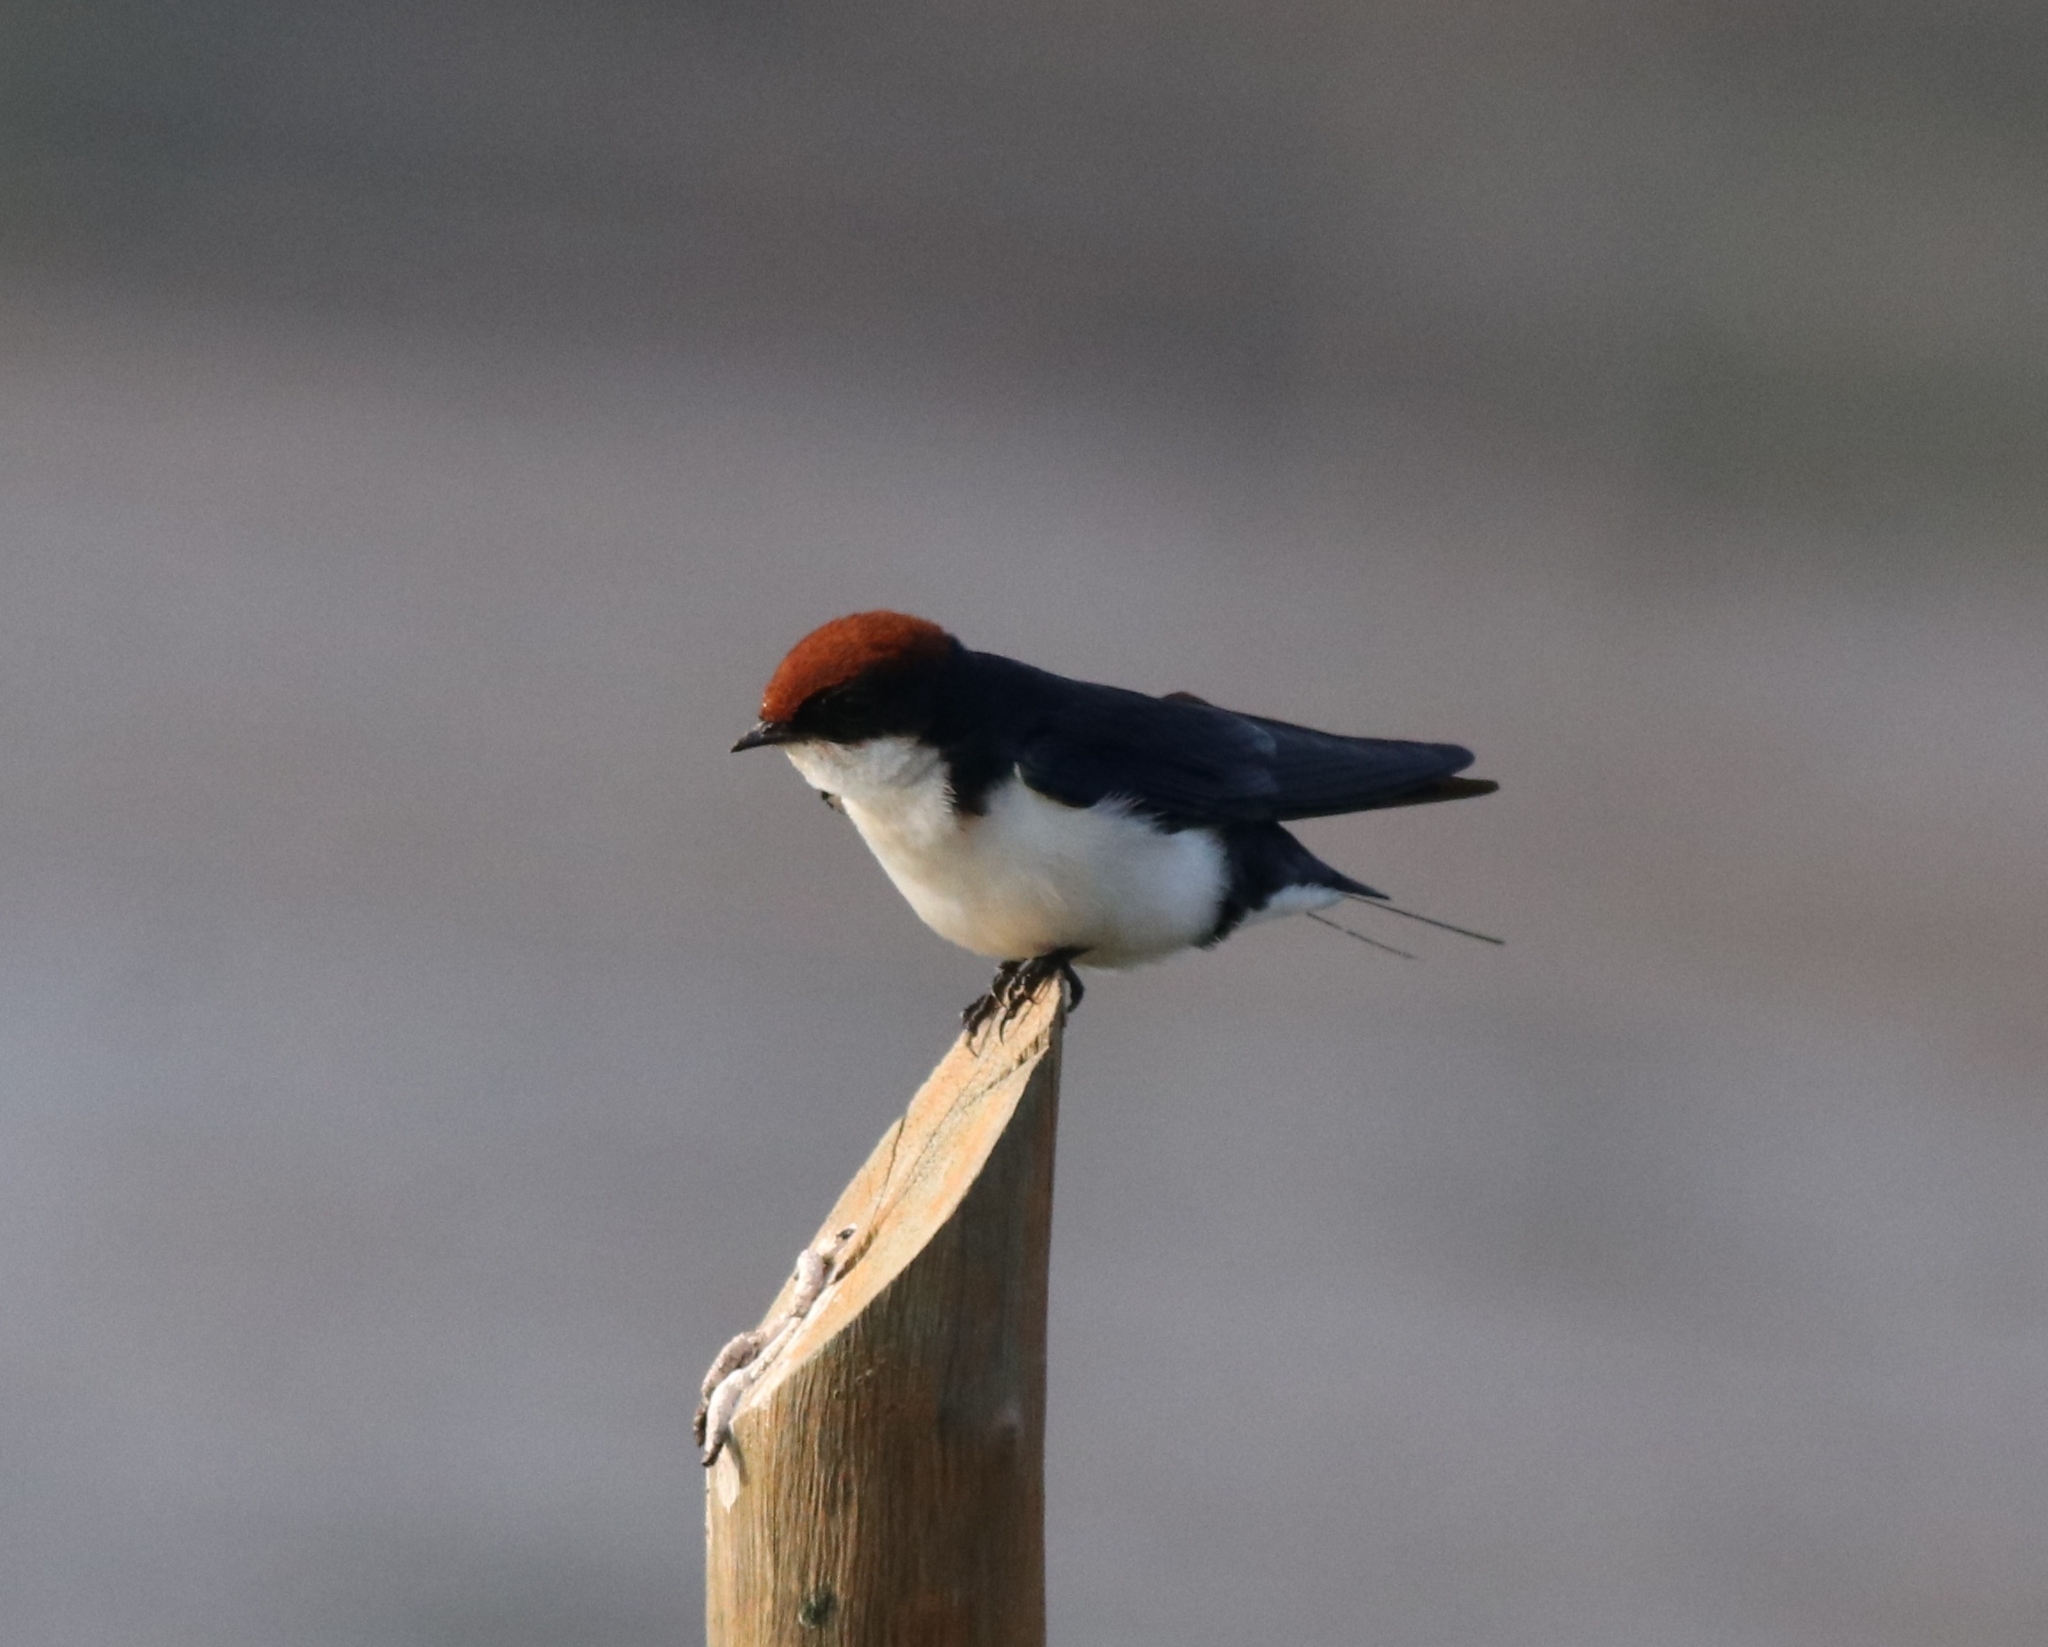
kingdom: Animalia
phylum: Chordata
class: Aves
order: Passeriformes
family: Hirundinidae
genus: Hirundo
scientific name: Hirundo smithii
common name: Wire-tailed swallow
